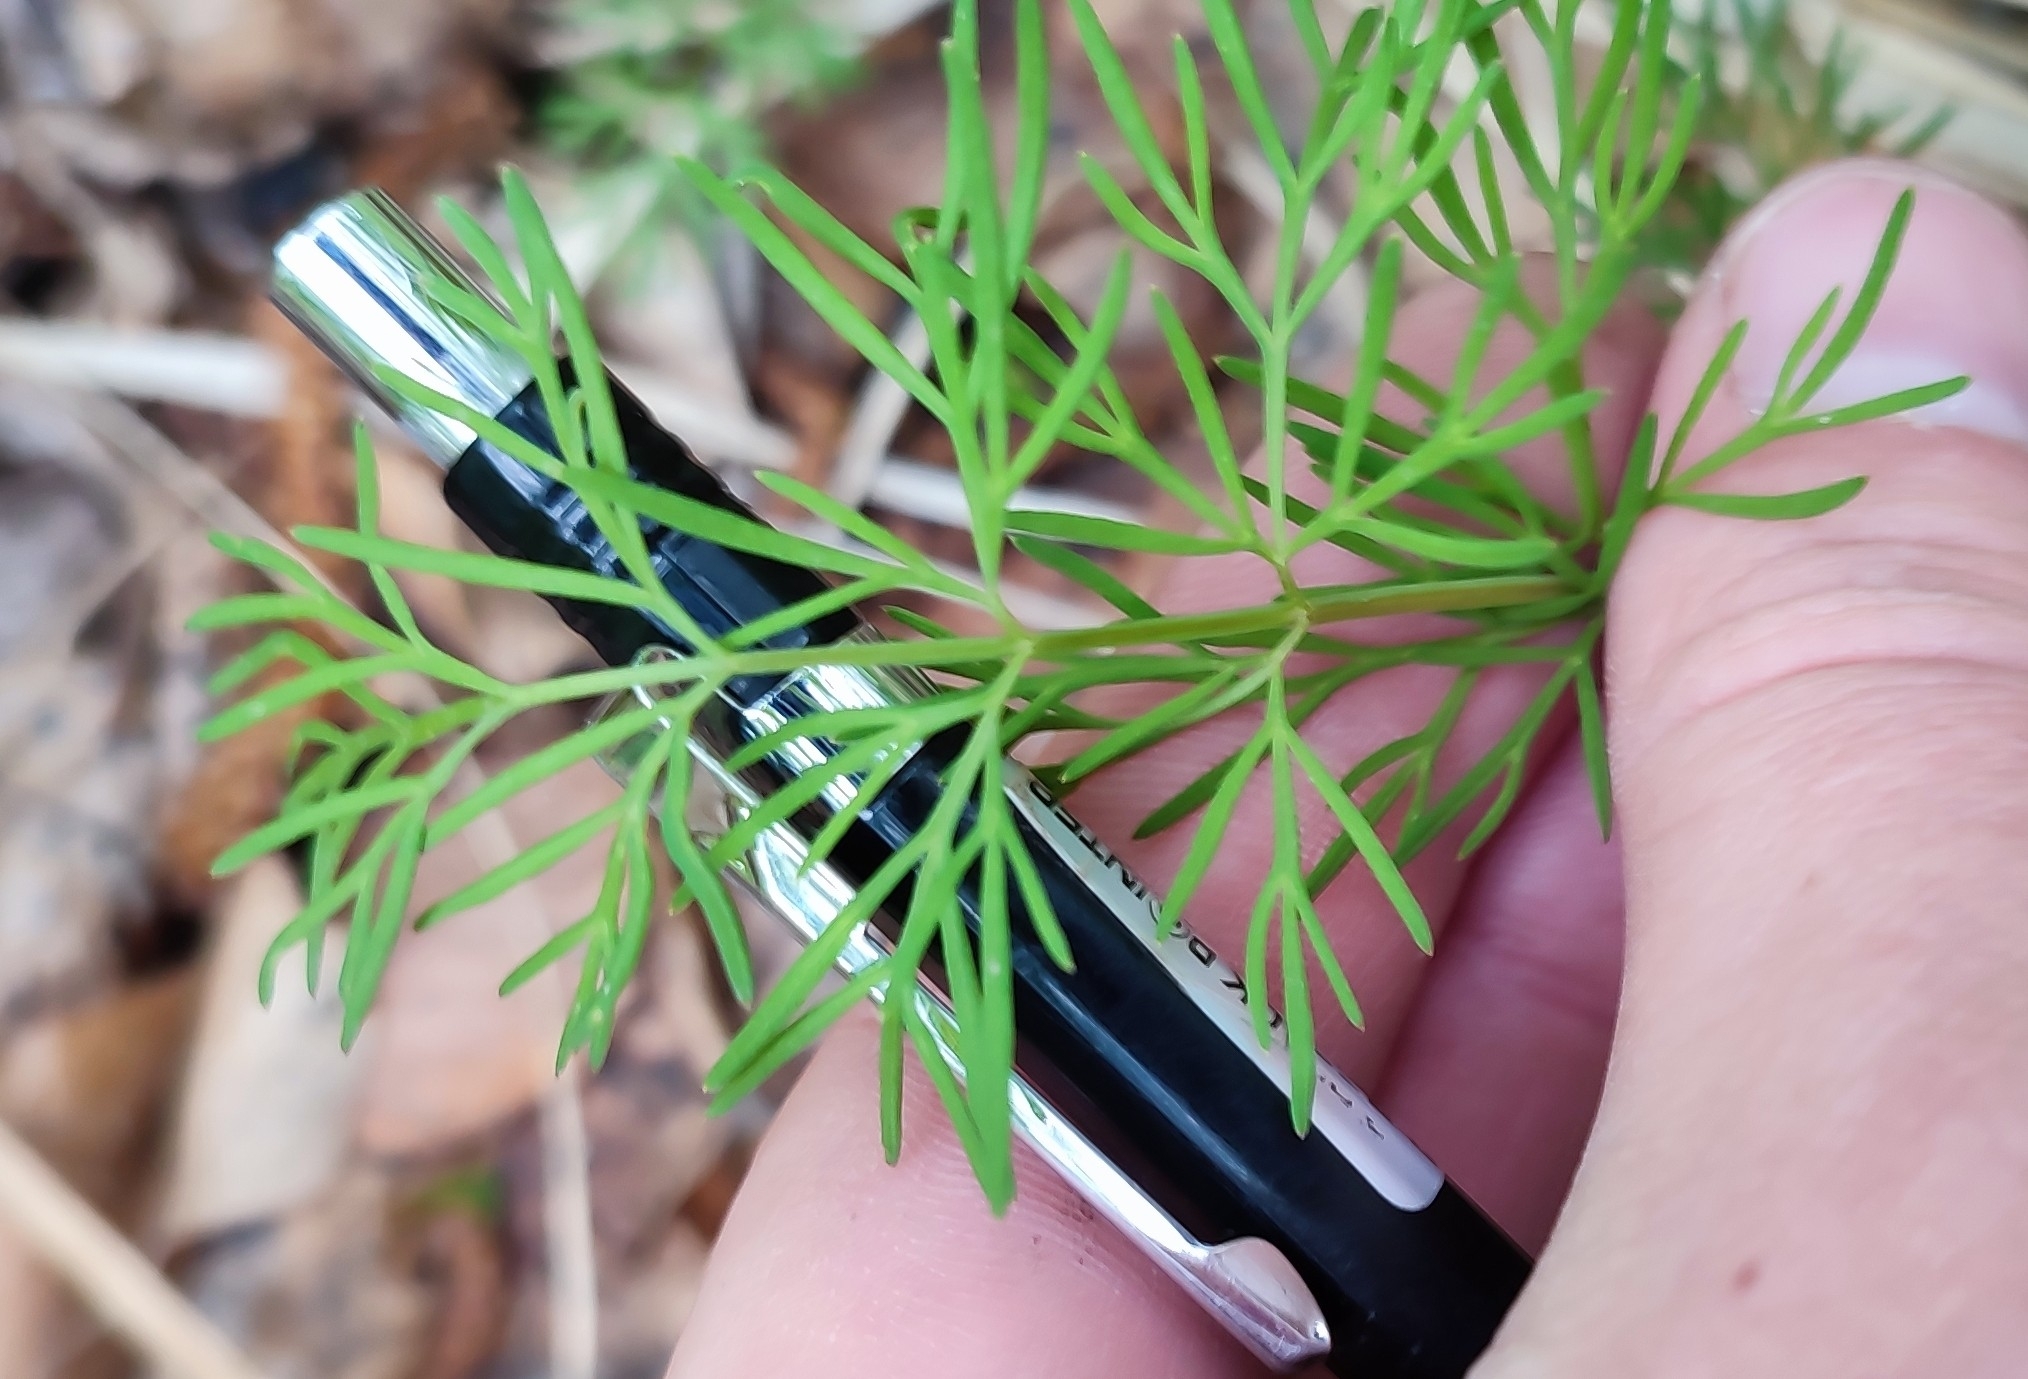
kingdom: Plantae
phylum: Tracheophyta
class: Magnoliopsida
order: Apiales
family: Apiaceae
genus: Kadenia
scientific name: Kadenia dubia
